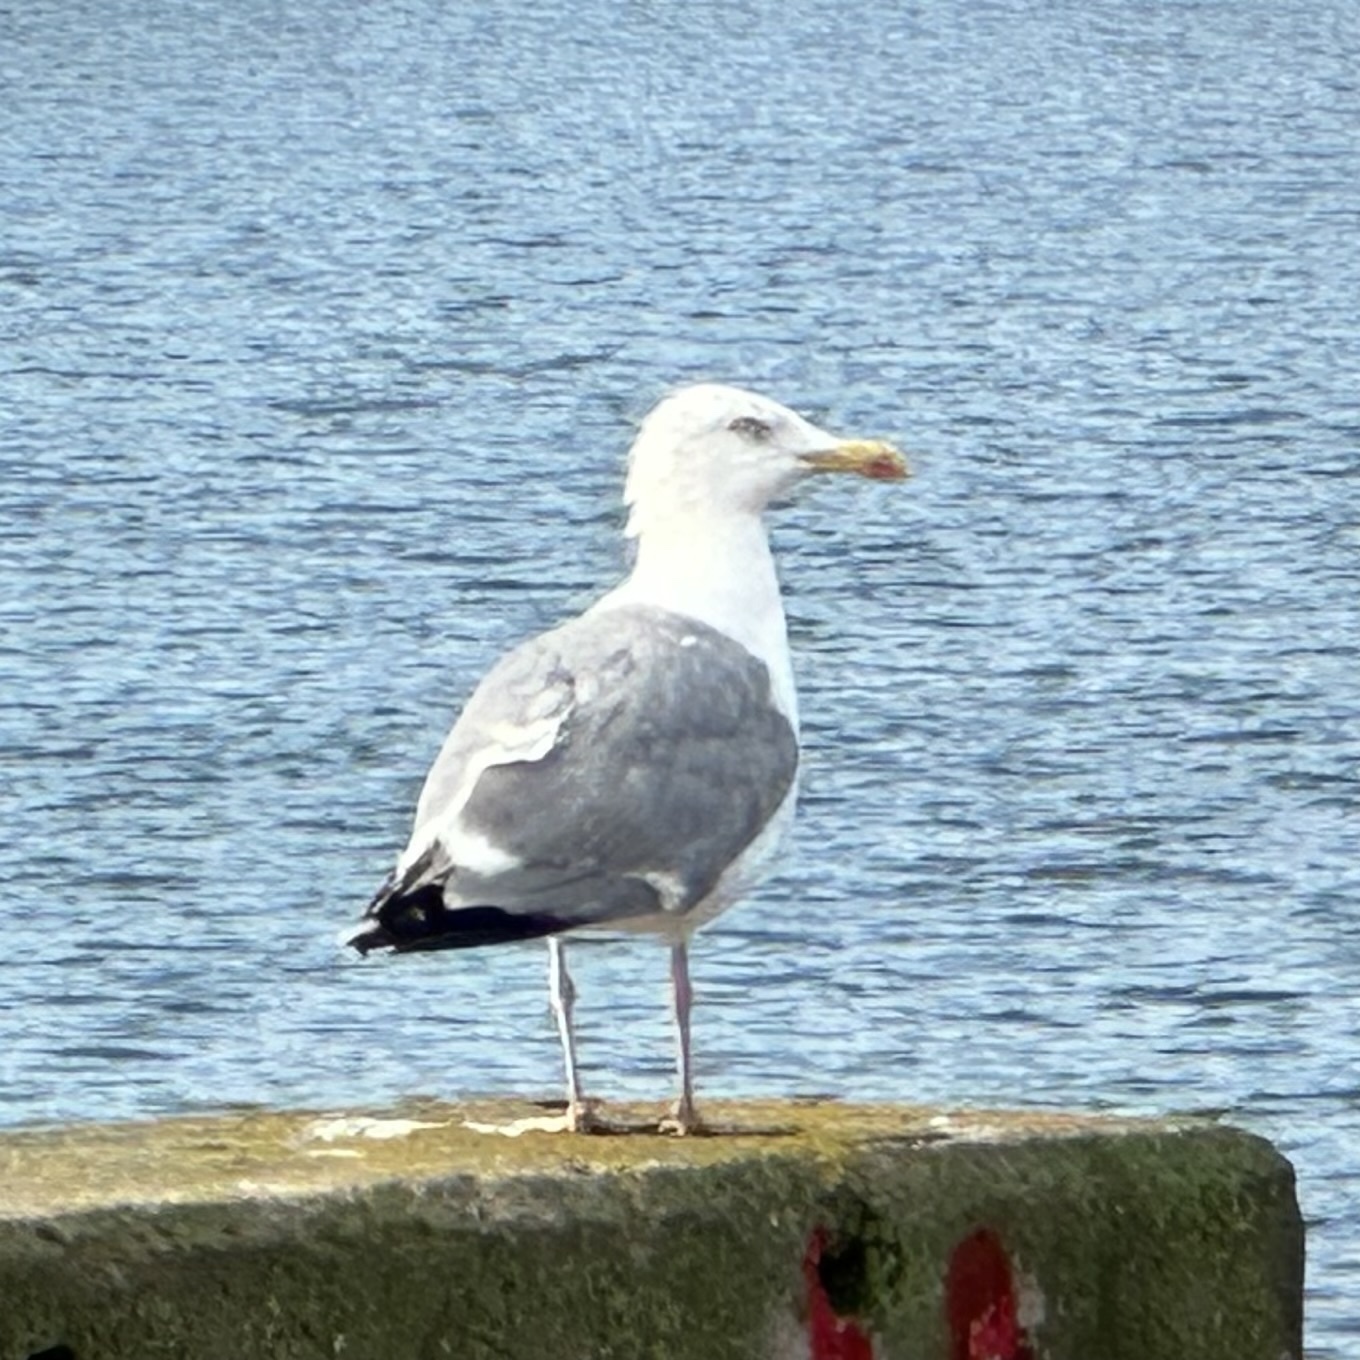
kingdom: Animalia
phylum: Chordata
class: Aves
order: Charadriiformes
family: Laridae
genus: Larus
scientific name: Larus argentatus
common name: Herring gull
